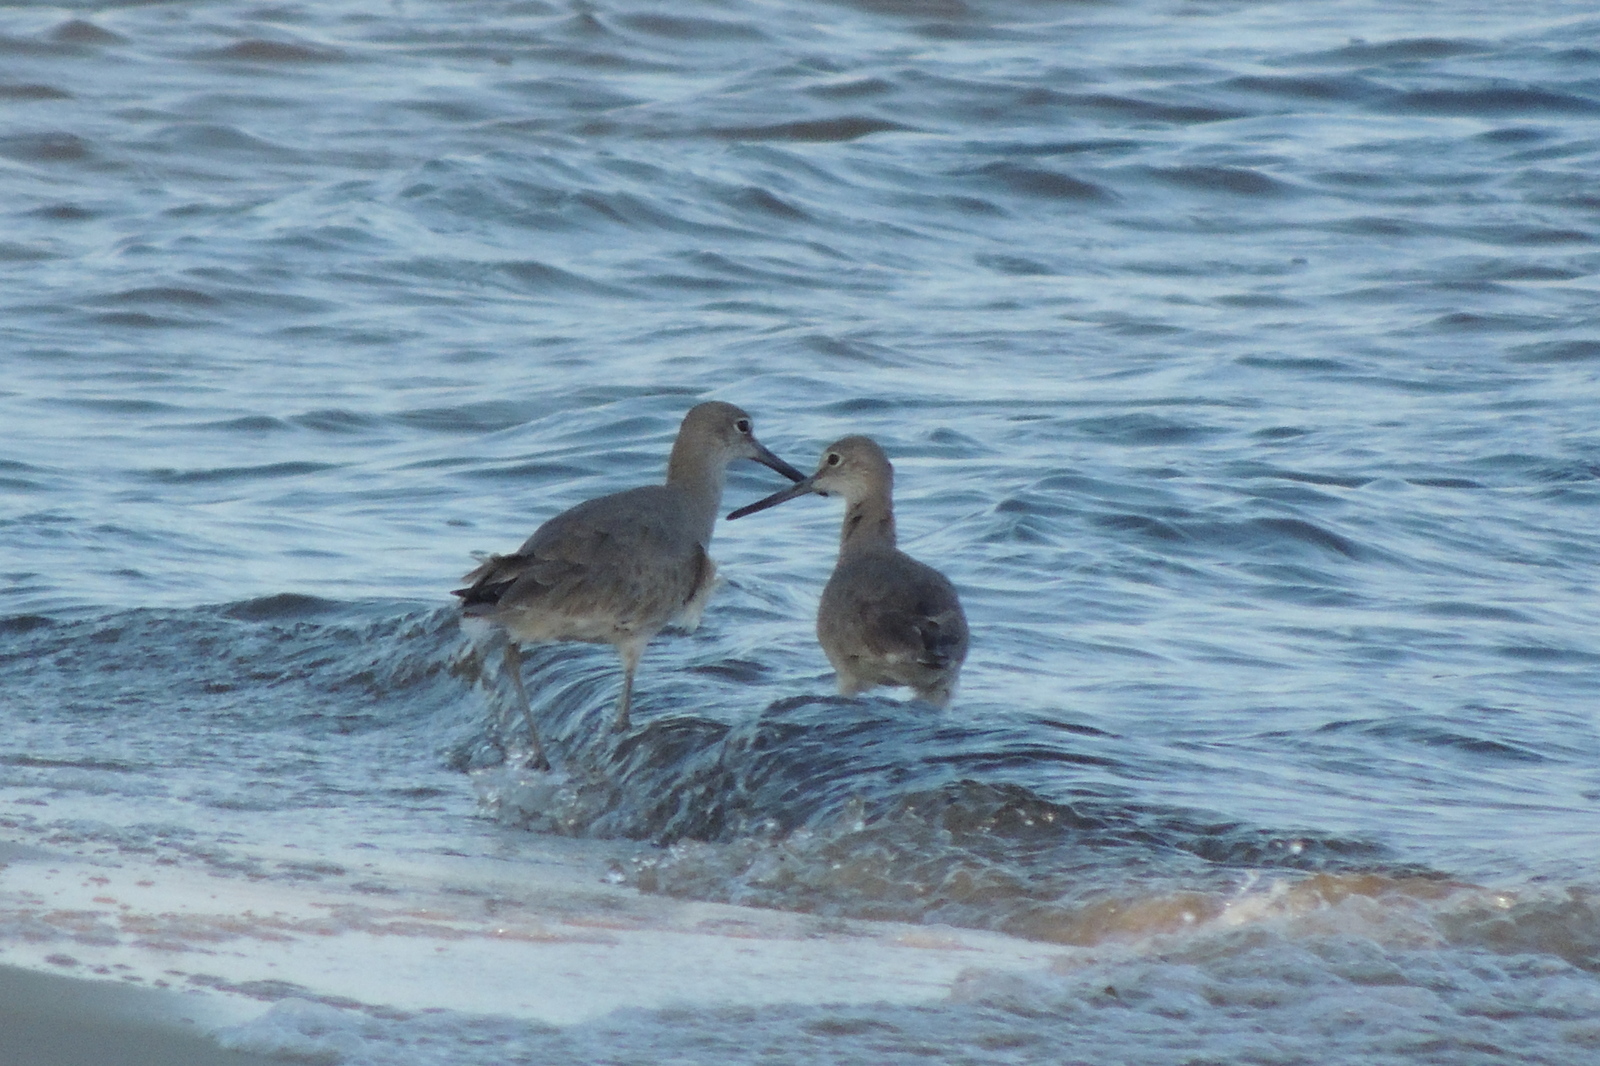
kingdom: Animalia
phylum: Chordata
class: Aves
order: Charadriiformes
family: Scolopacidae
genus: Tringa
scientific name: Tringa semipalmata
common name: Willet
